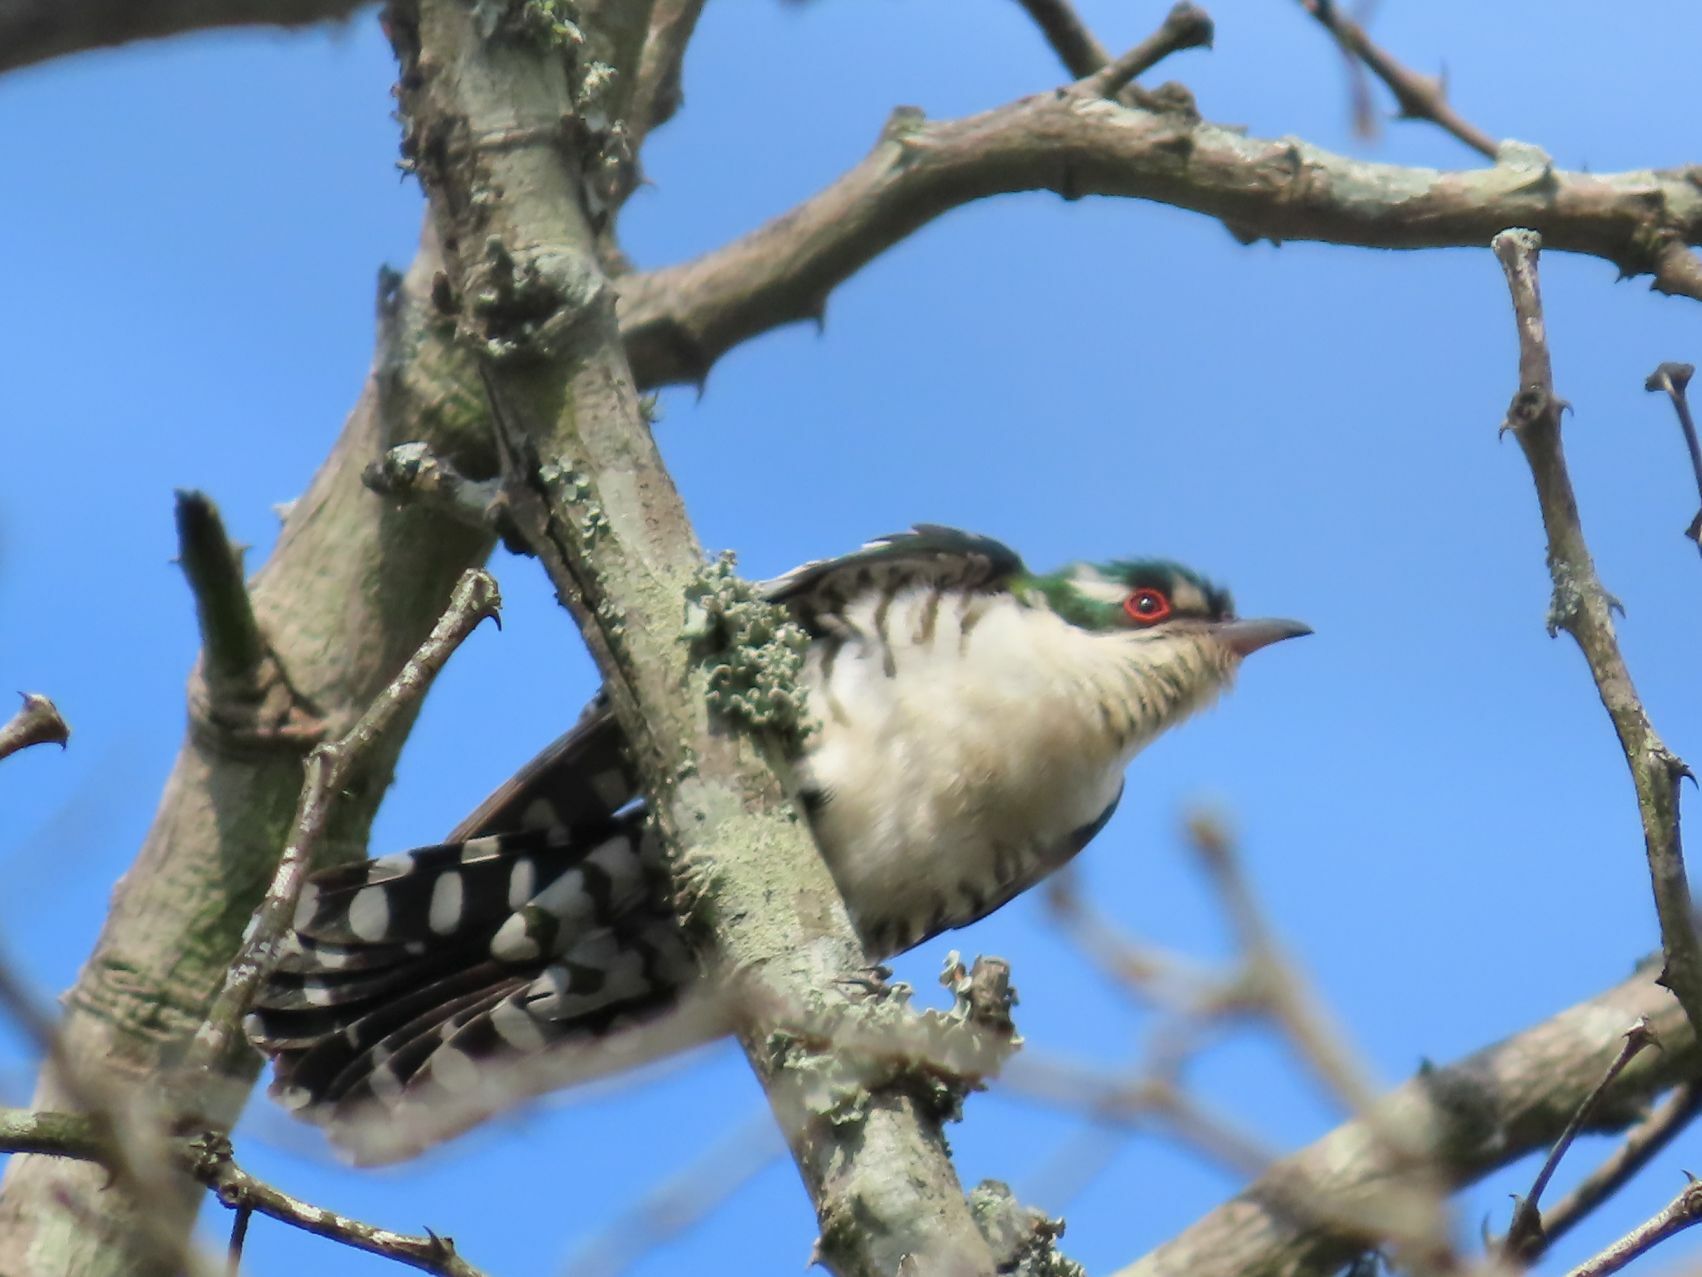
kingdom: Animalia
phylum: Chordata
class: Aves
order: Cuculiformes
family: Cuculidae
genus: Chrysococcyx
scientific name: Chrysococcyx caprius
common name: Diederik cuckoo
